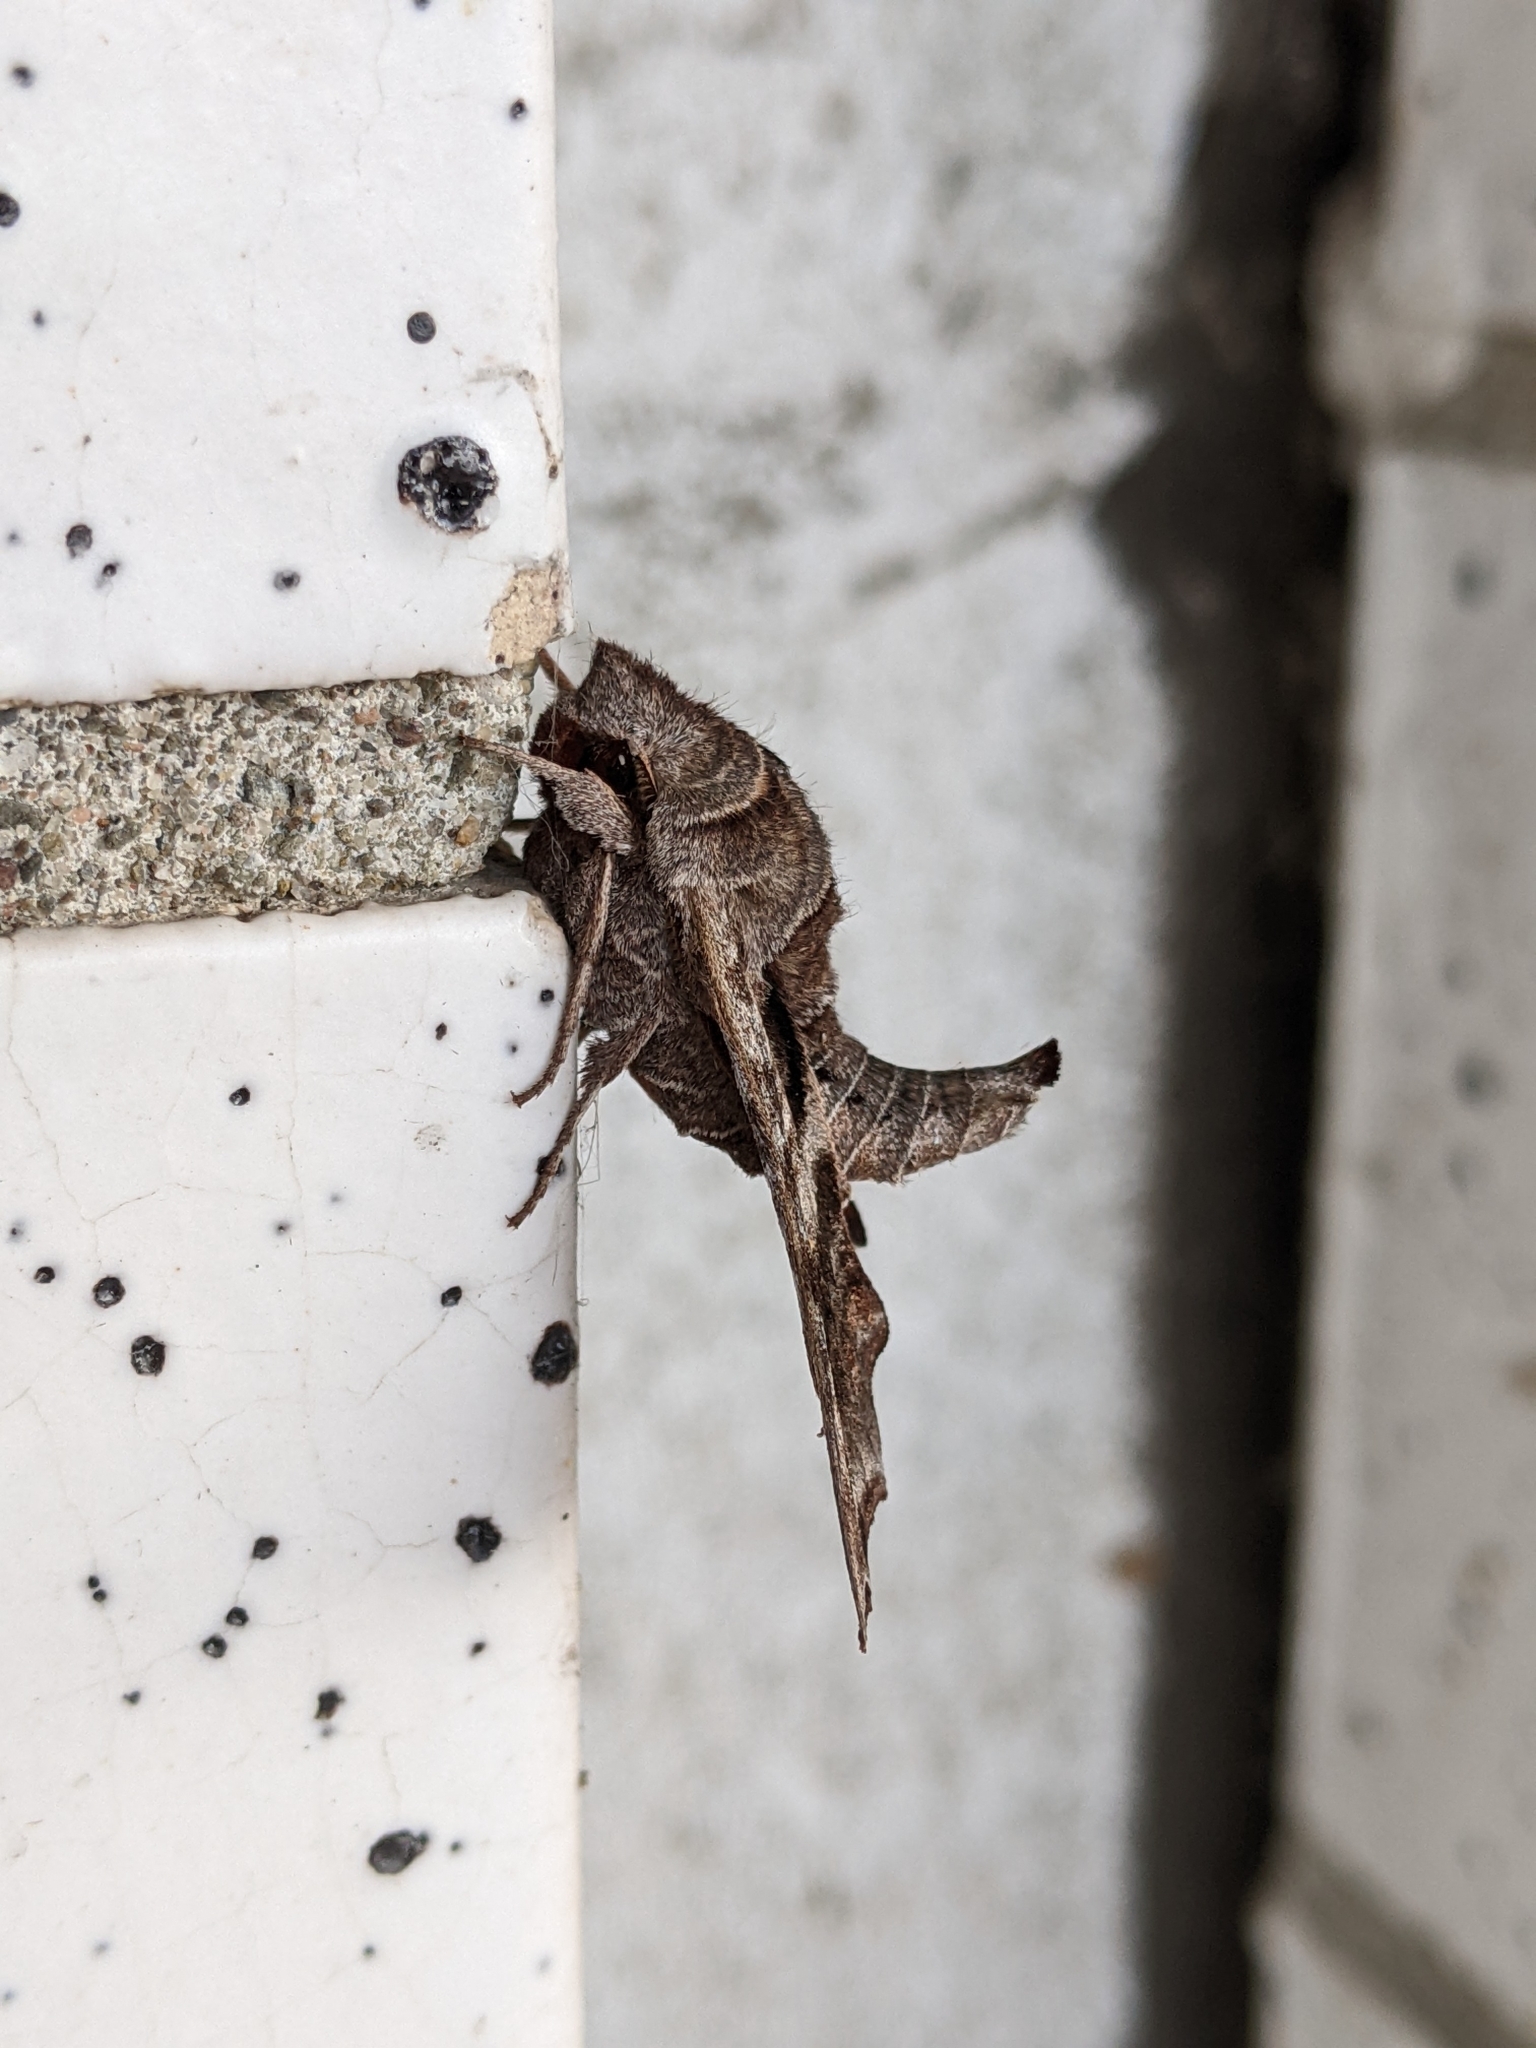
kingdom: Animalia
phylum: Arthropoda
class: Insecta
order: Lepidoptera
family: Sphingidae
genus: Deidamia
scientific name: Deidamia inscriptum
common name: Lettered sphinx
